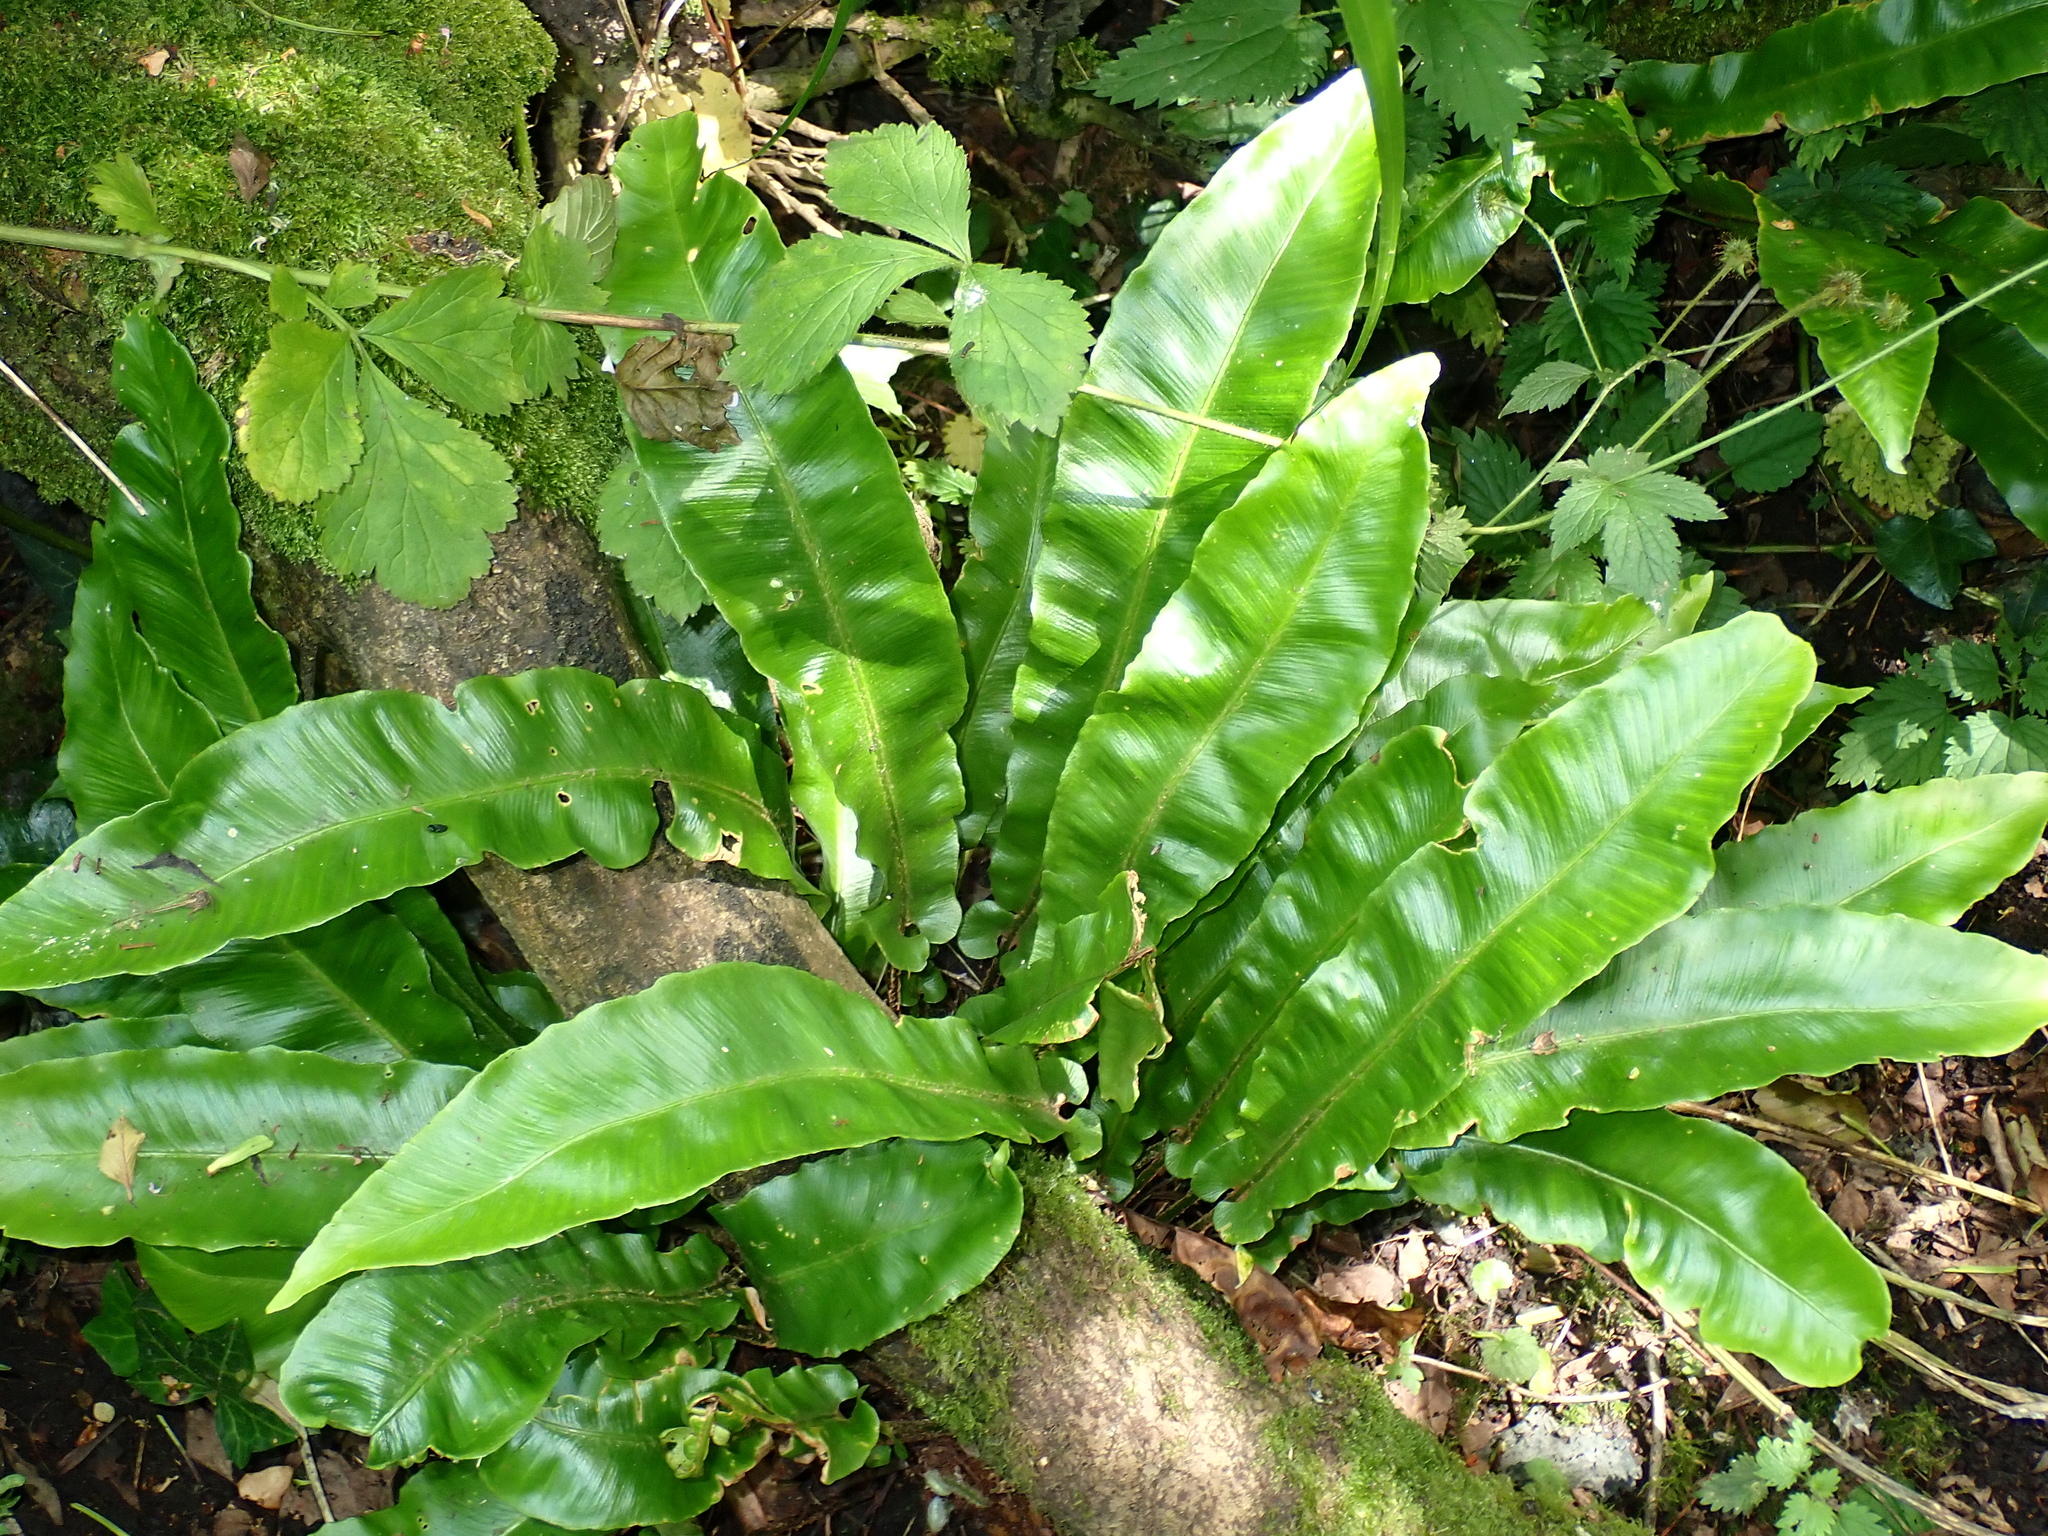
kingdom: Plantae
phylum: Tracheophyta
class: Polypodiopsida
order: Polypodiales
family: Aspleniaceae
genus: Asplenium
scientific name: Asplenium scolopendrium
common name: Hart's-tongue fern
